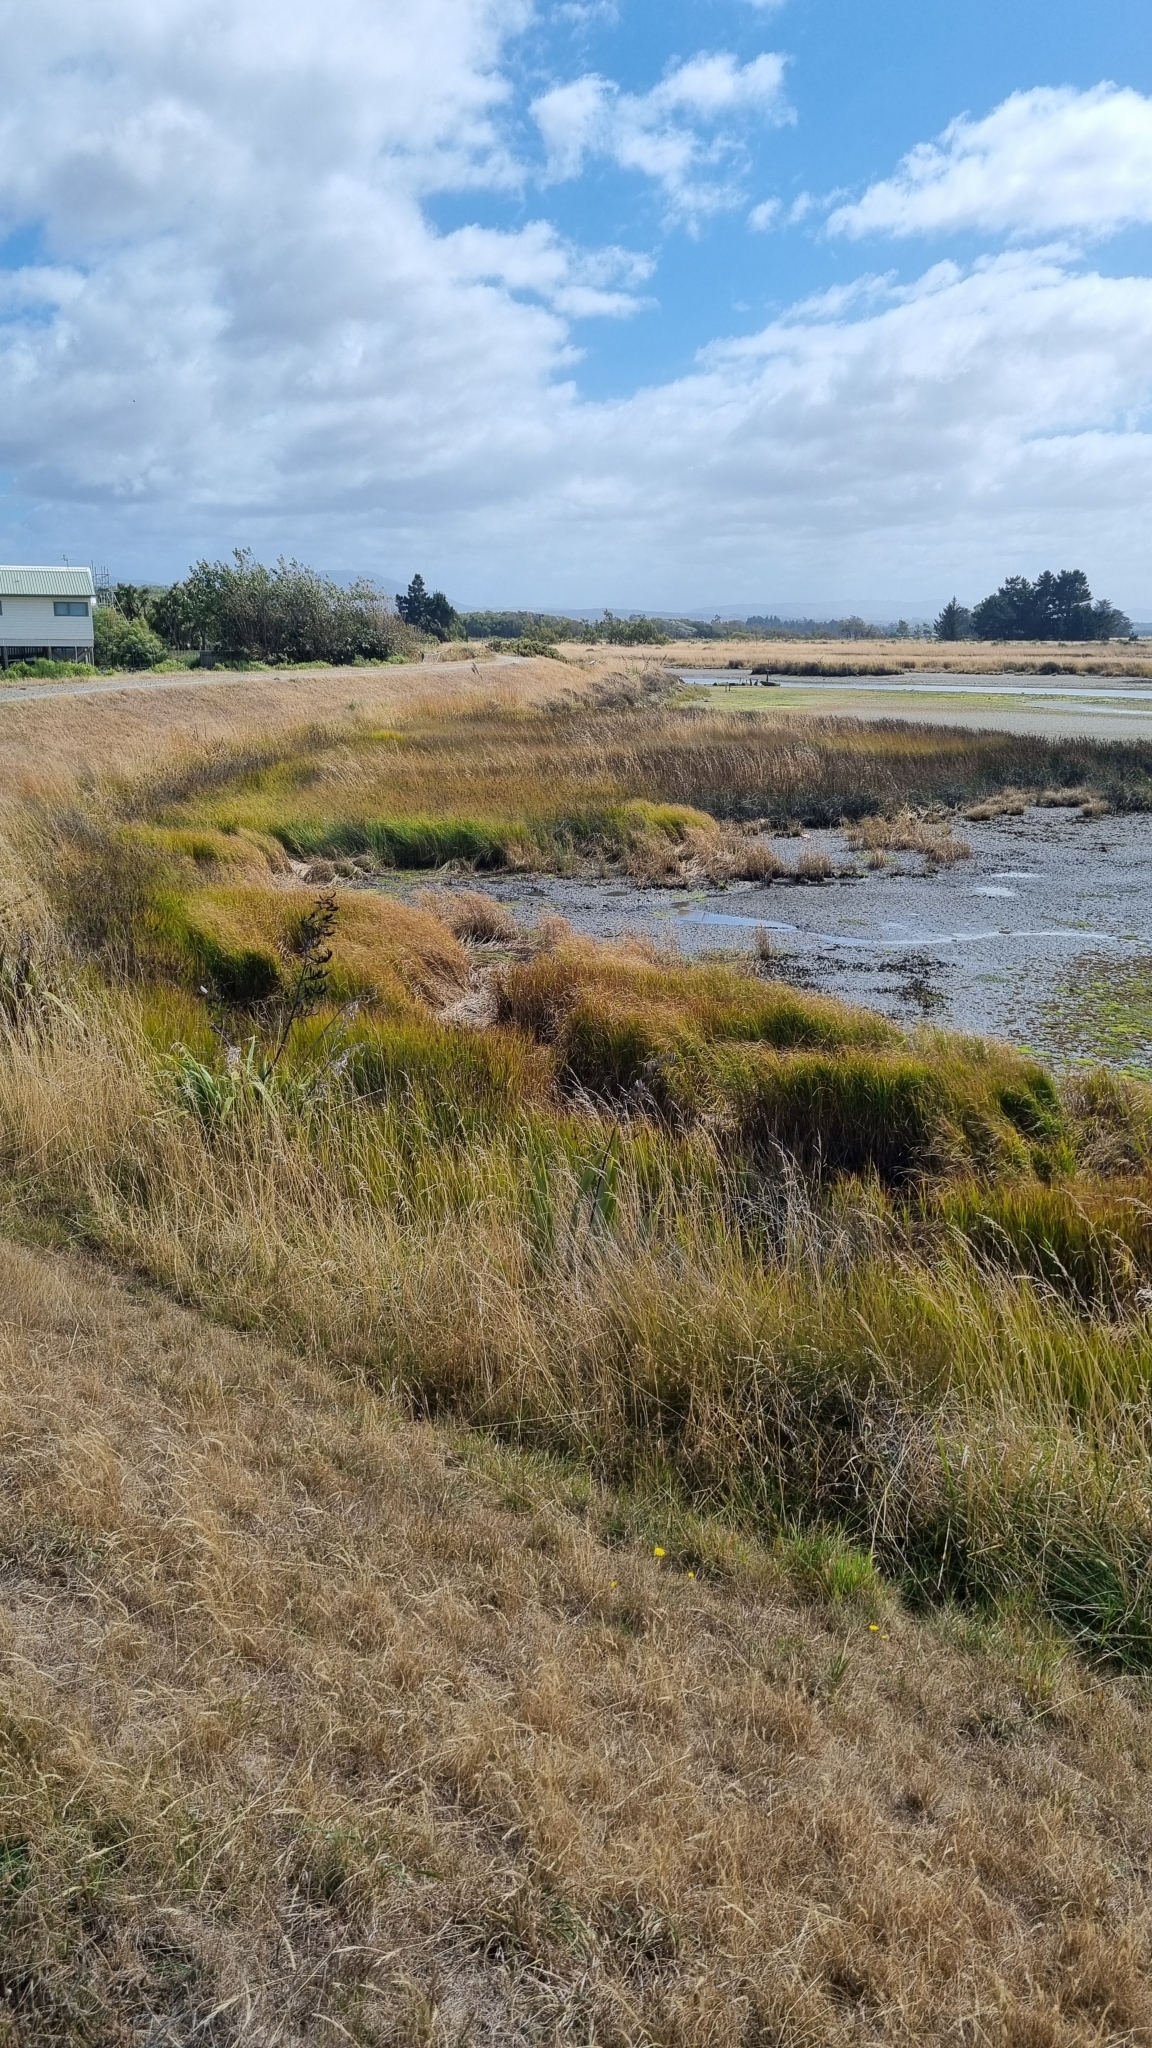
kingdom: Plantae
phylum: Tracheophyta
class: Liliopsida
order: Poales
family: Cyperaceae
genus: Bolboschoenus
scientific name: Bolboschoenus caldwellii
